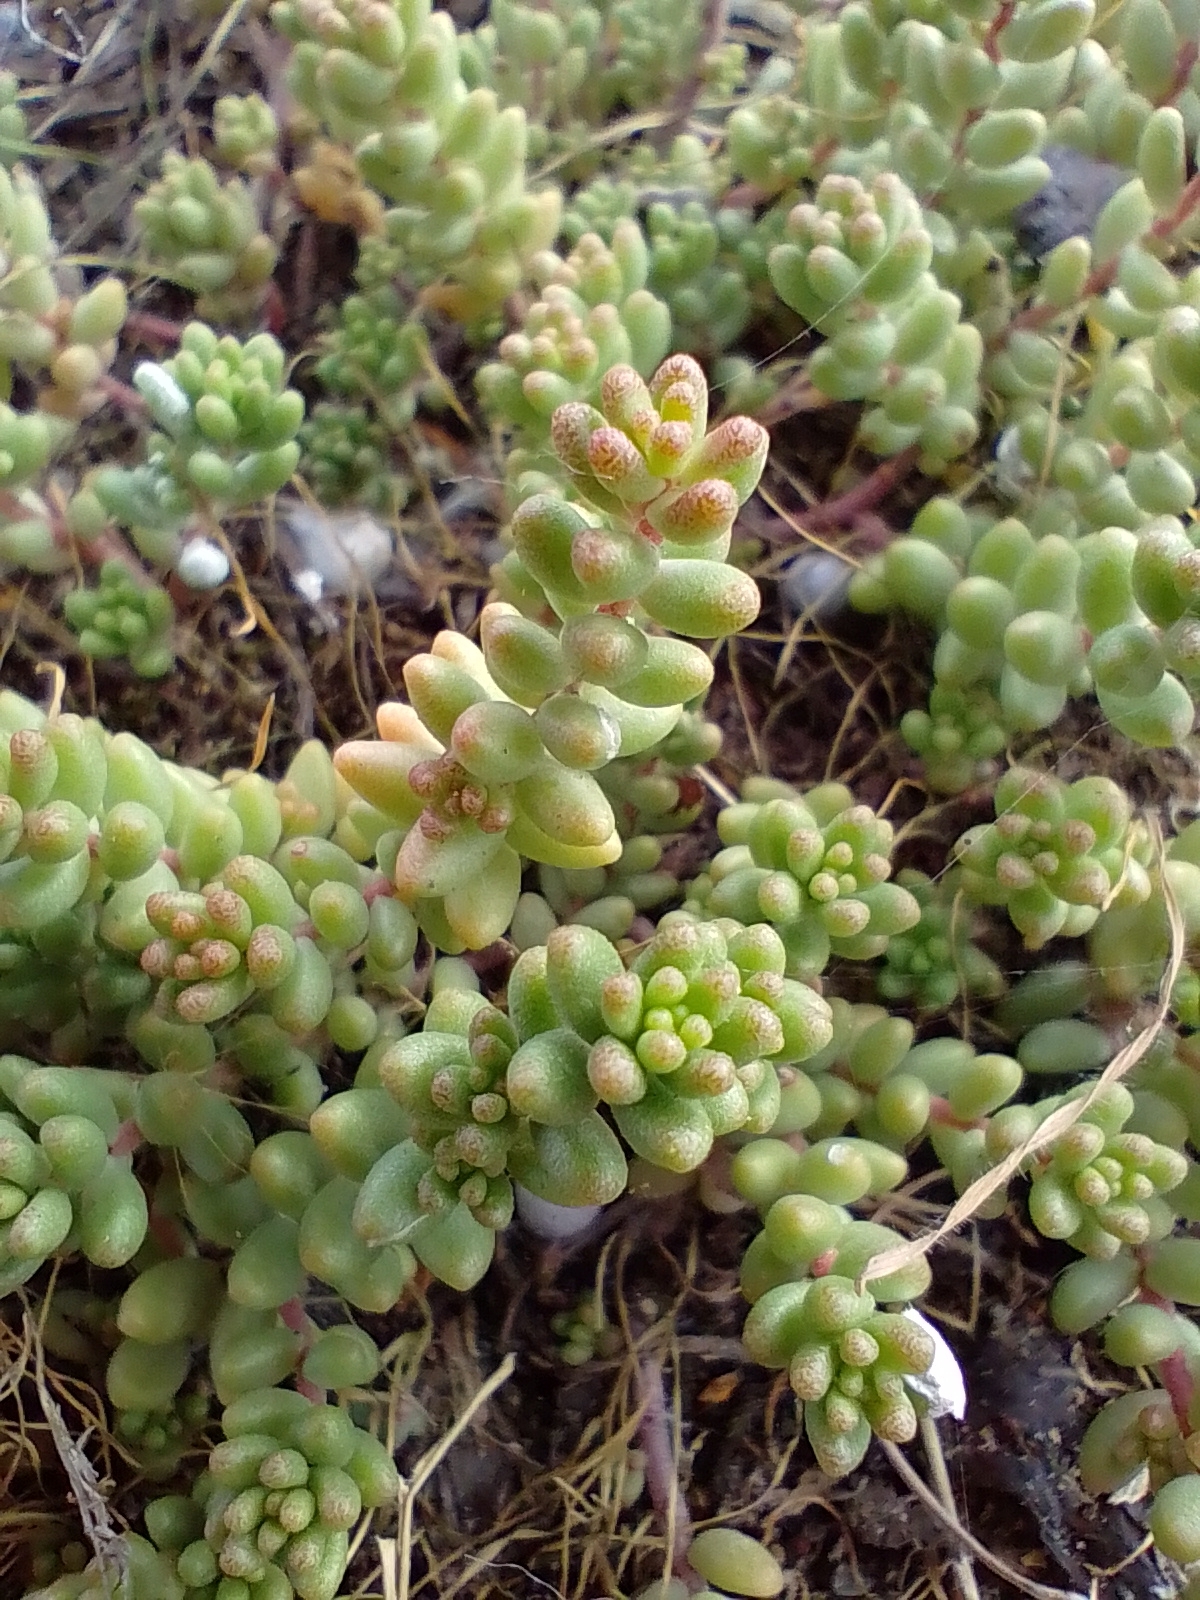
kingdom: Plantae
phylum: Tracheophyta
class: Magnoliopsida
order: Saxifragales
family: Crassulaceae
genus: Sedum
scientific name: Sedum album
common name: White stonecrop
